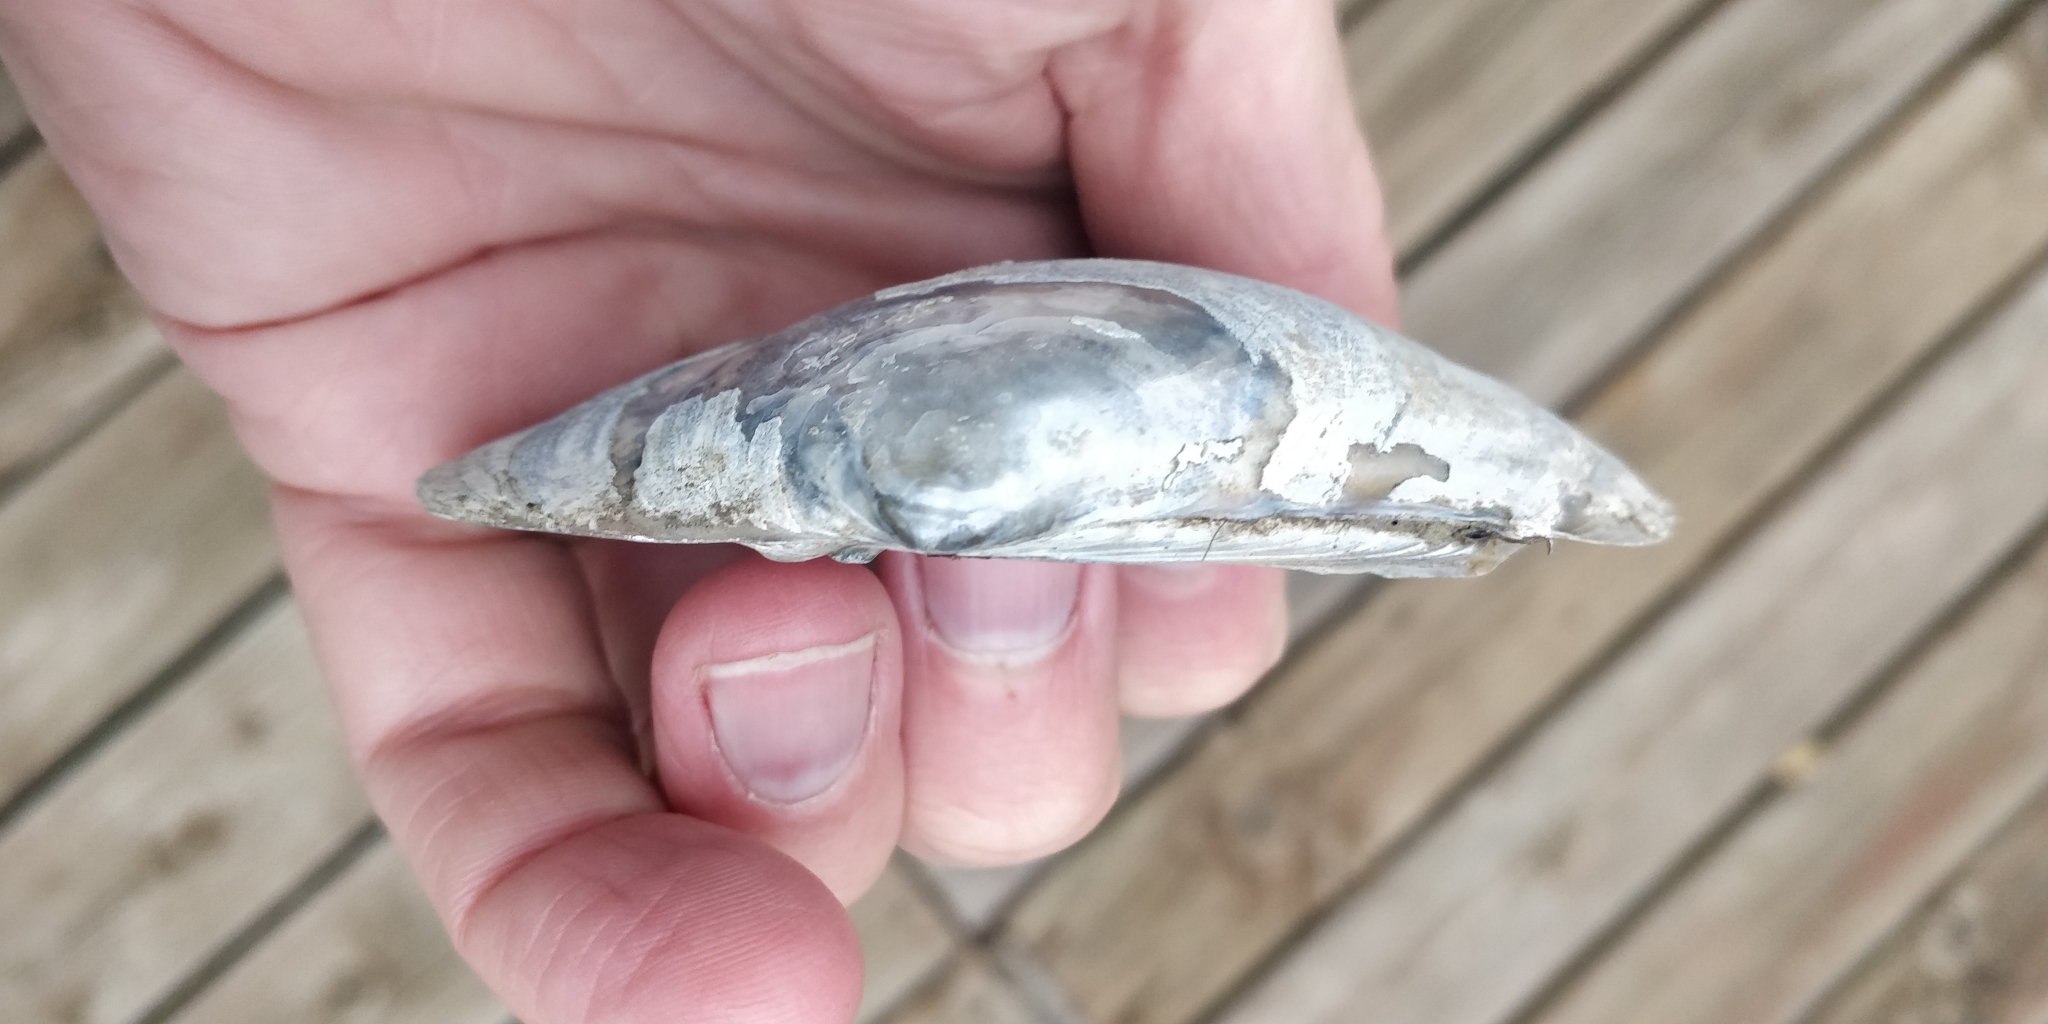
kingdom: Animalia
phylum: Mollusca
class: Bivalvia
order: Unionida
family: Unionidae
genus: Lampsilis
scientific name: Lampsilis cardium
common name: Plain pocketbook
